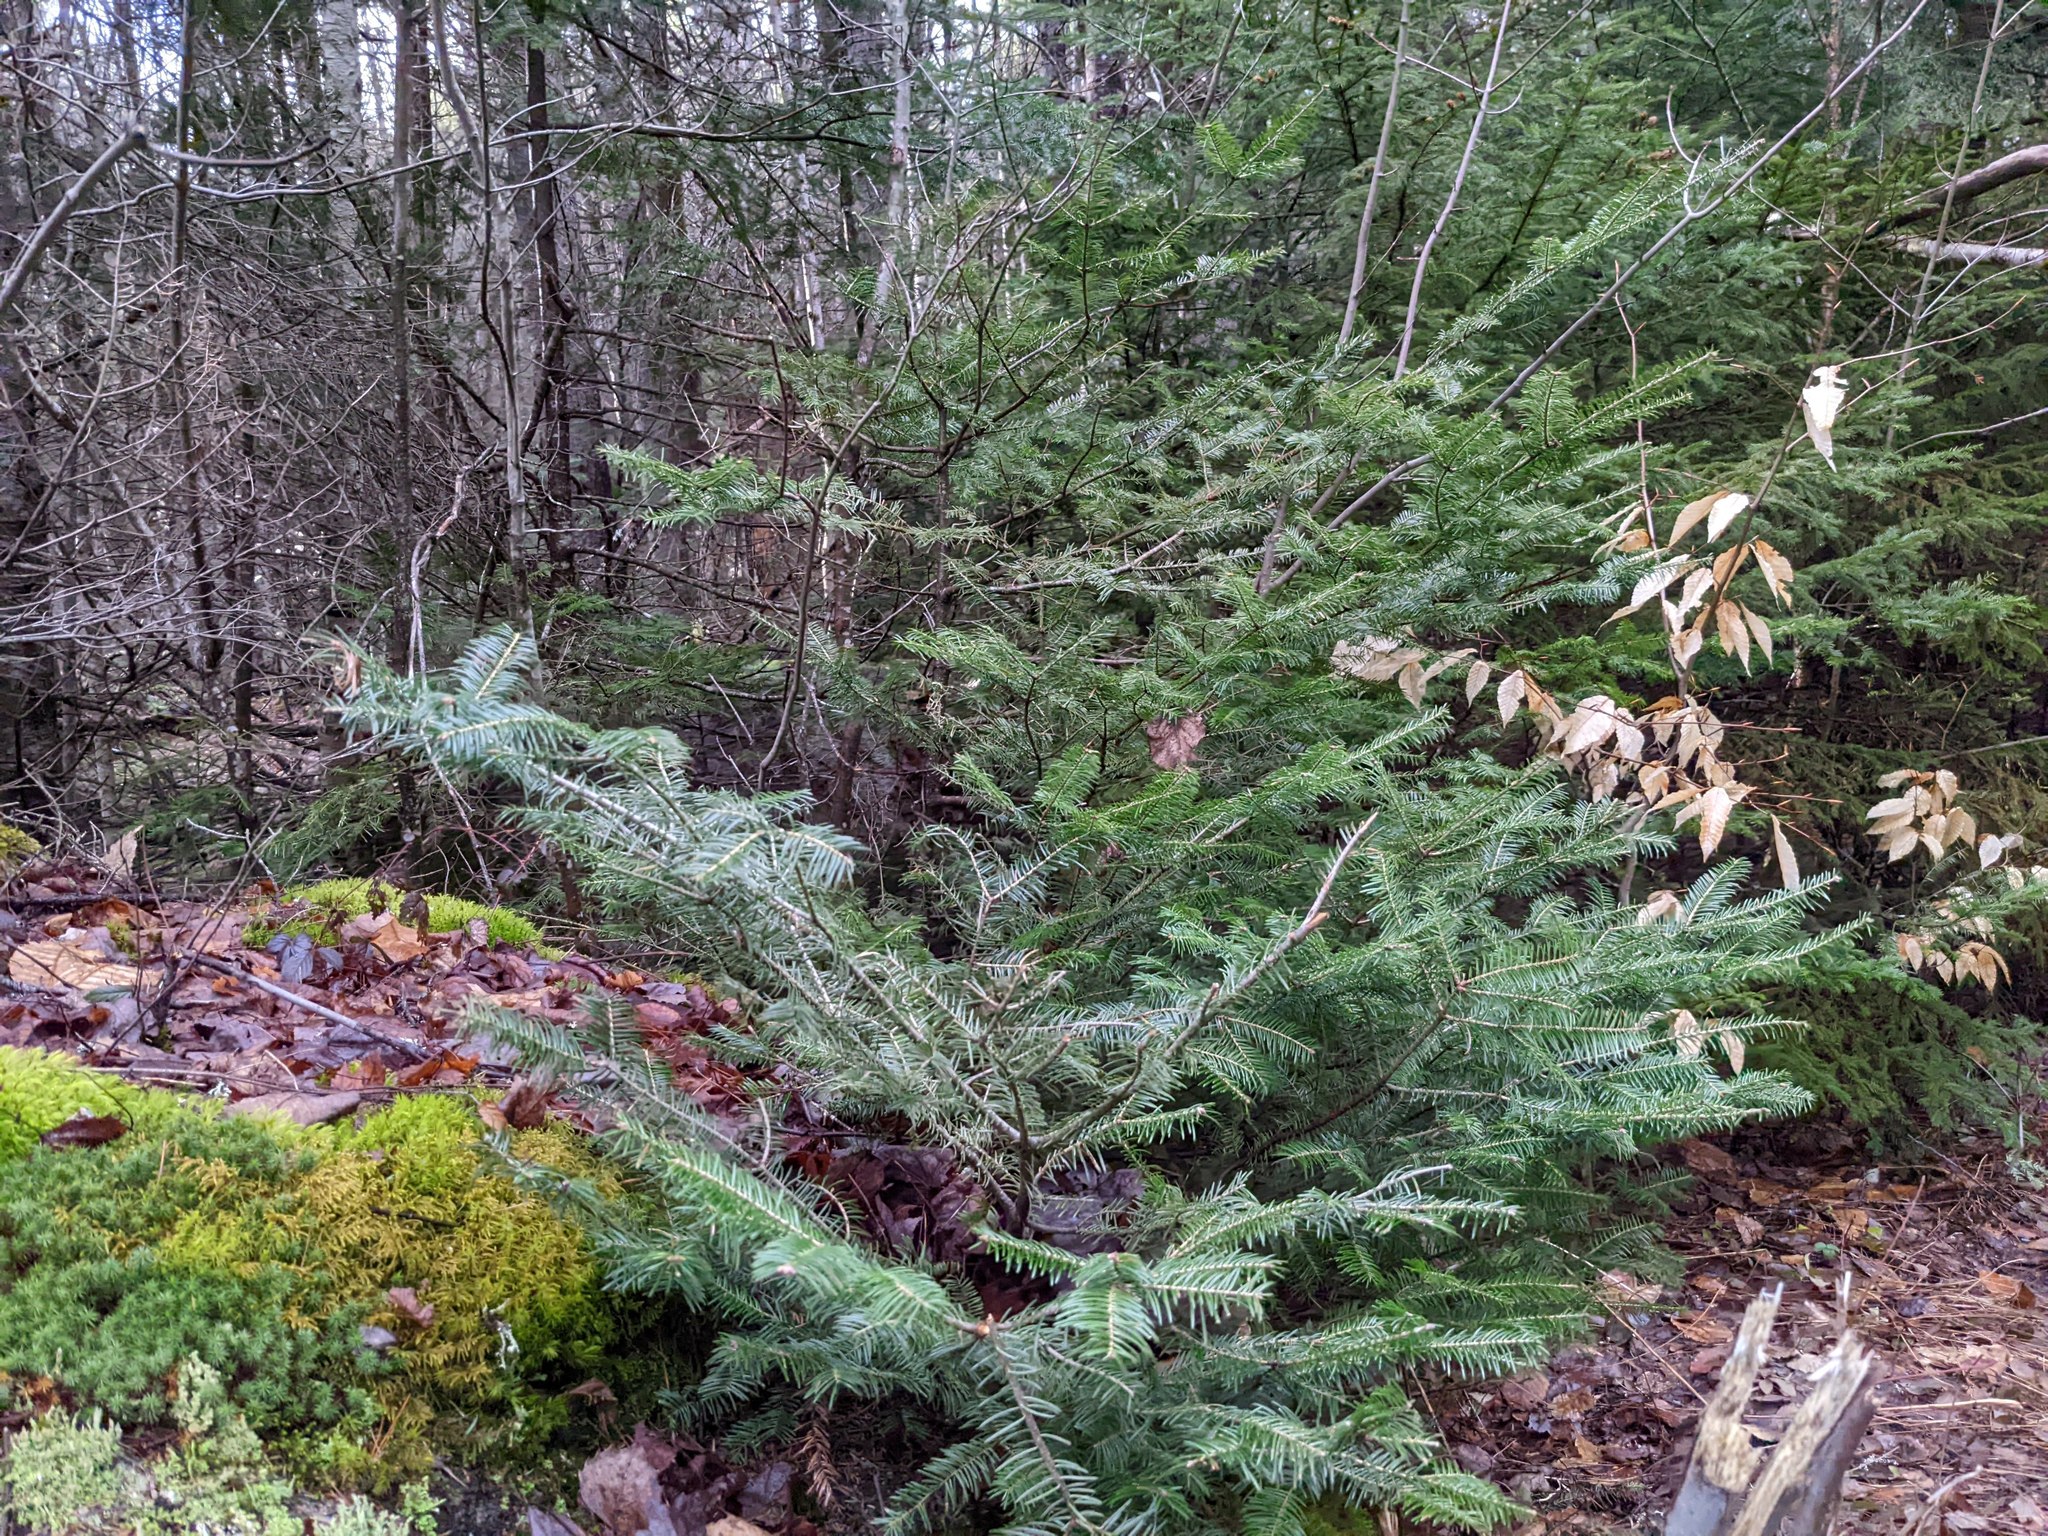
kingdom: Plantae
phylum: Tracheophyta
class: Pinopsida
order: Pinales
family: Pinaceae
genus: Abies
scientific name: Abies balsamea
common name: Balsam fir
